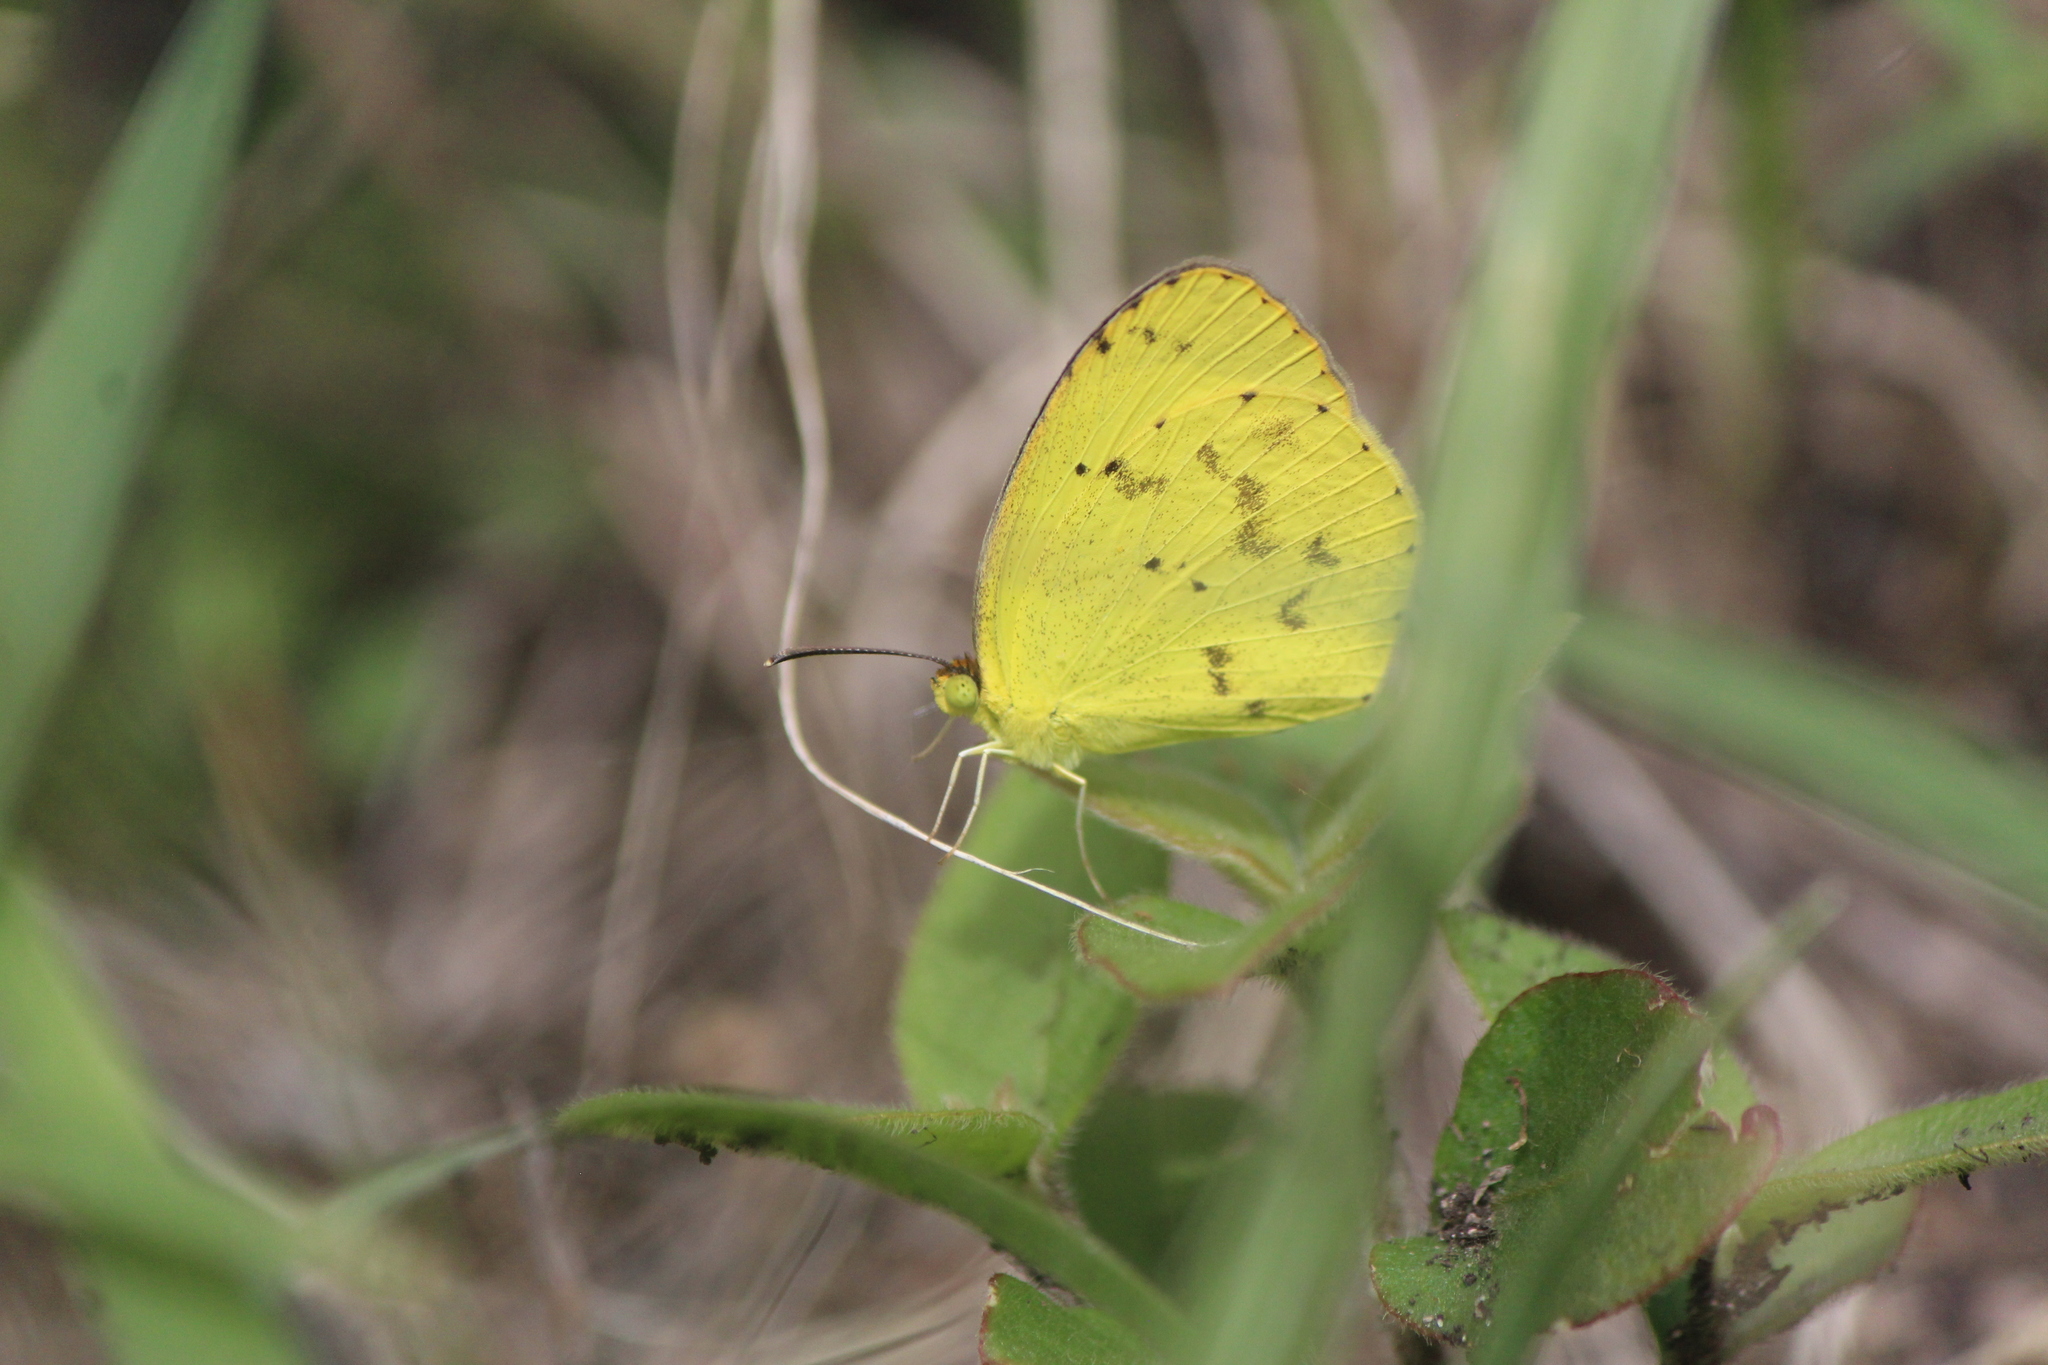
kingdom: Animalia
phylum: Arthropoda
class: Insecta
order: Lepidoptera
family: Pieridae
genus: Pyrisitia
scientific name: Pyrisitia nise
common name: Mimosa yellow
